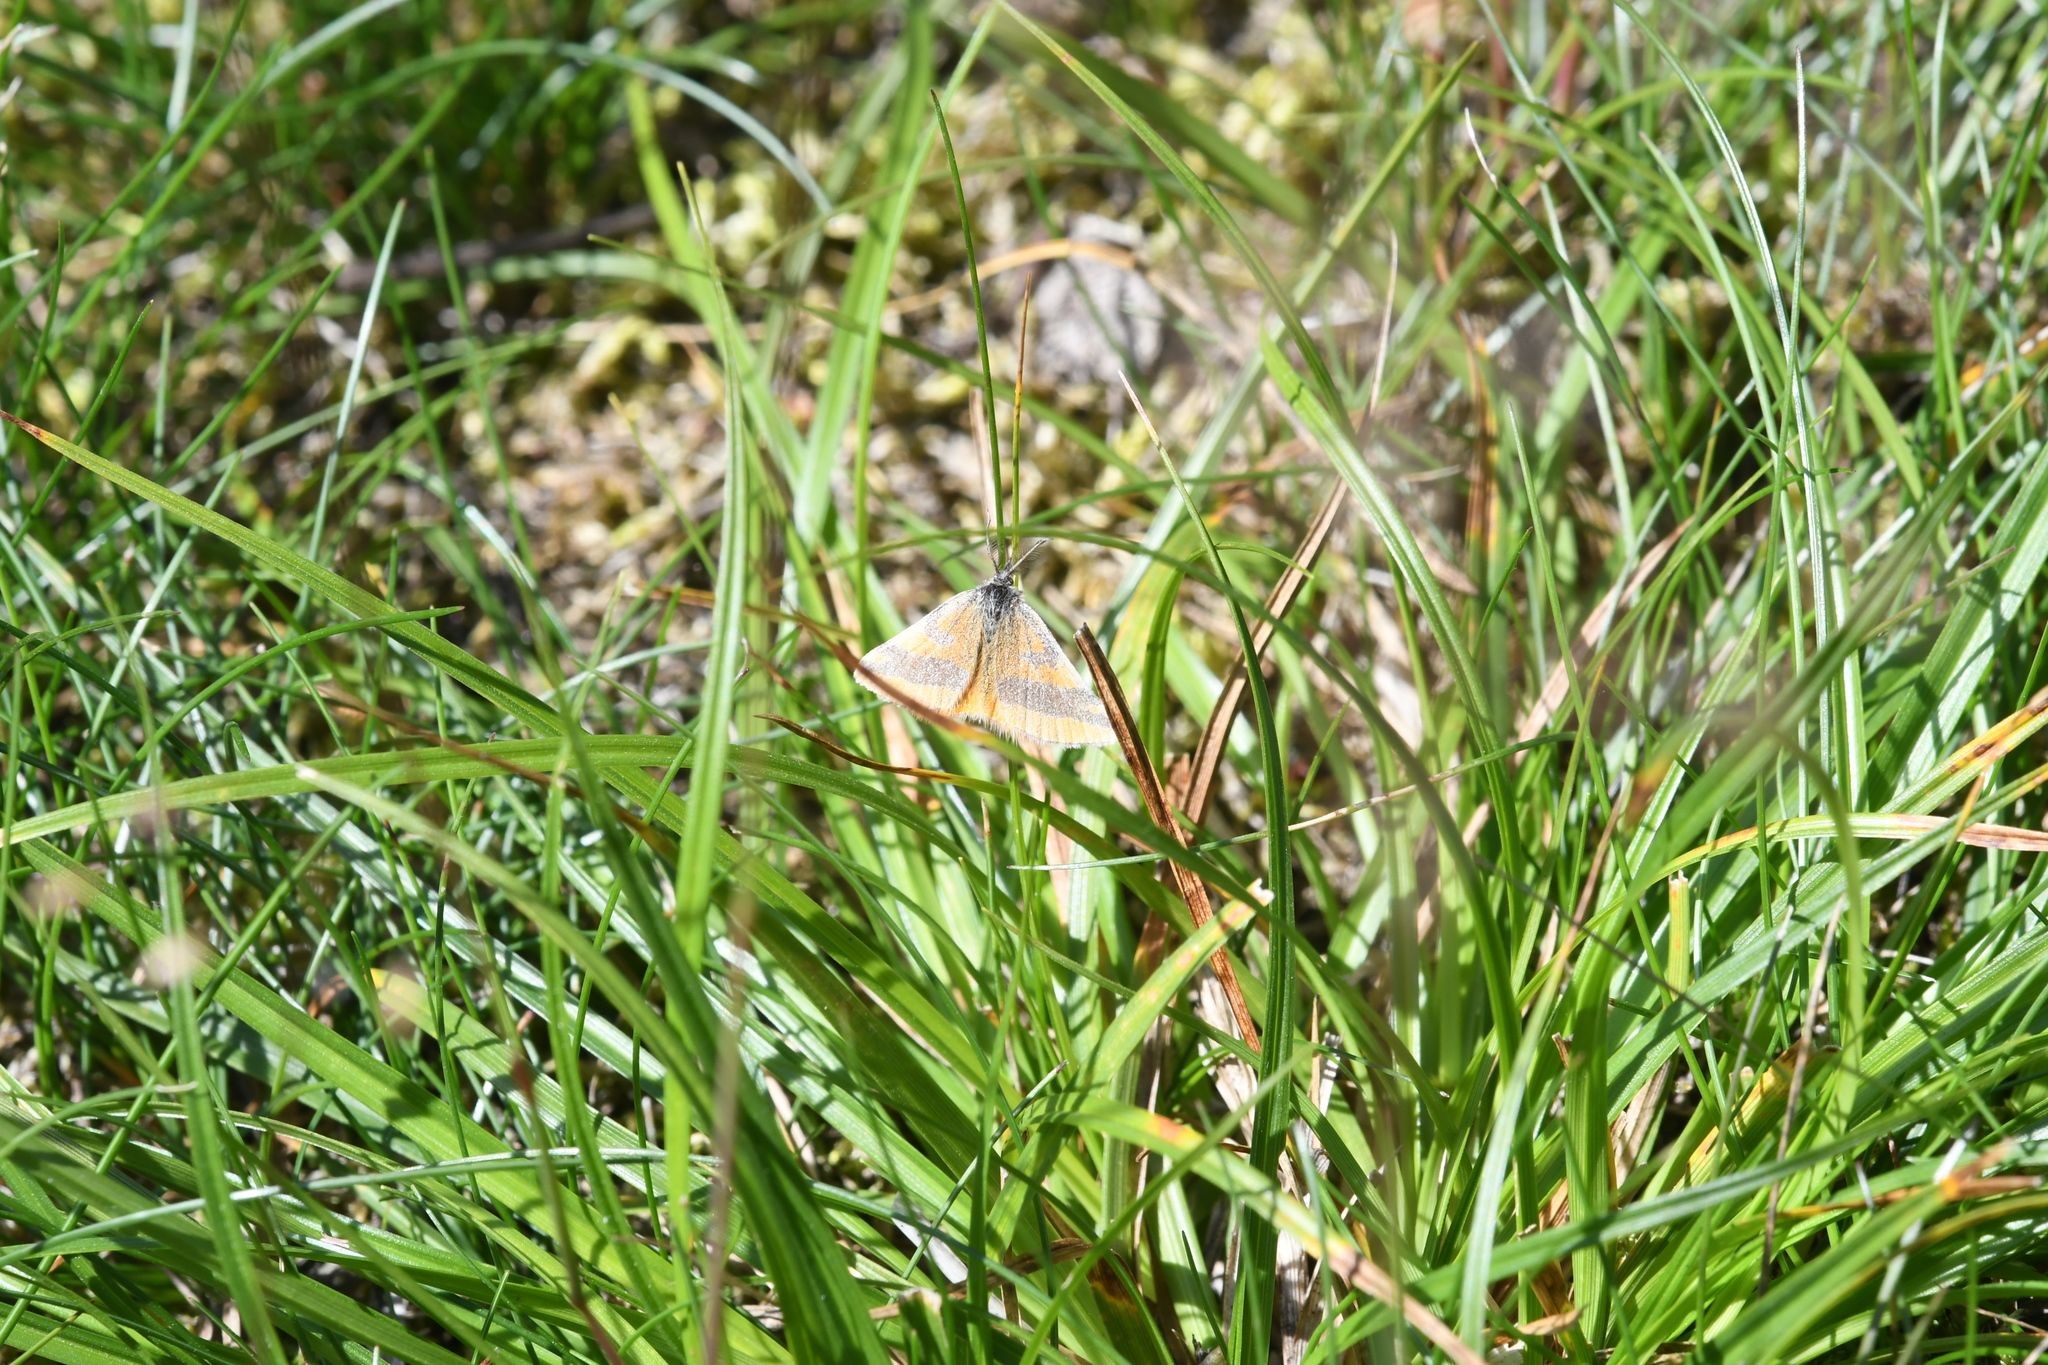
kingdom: Animalia
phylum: Arthropoda
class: Insecta
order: Lepidoptera
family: Geometridae
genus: Lythria
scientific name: Lythria cruentaria
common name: Purple-barred yellow
